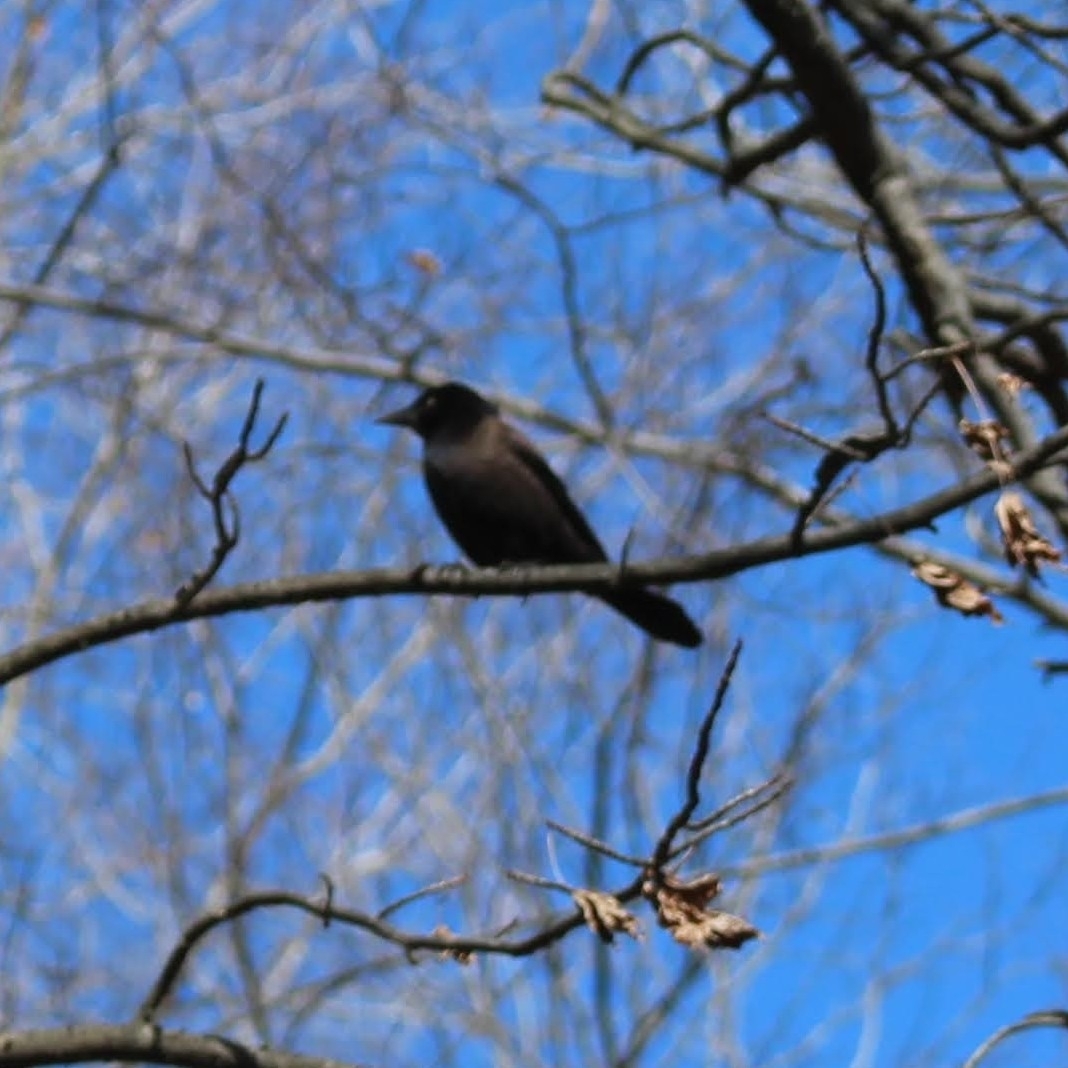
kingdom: Animalia
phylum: Chordata
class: Aves
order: Passeriformes
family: Icteridae
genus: Quiscalus
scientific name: Quiscalus quiscula
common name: Common grackle
